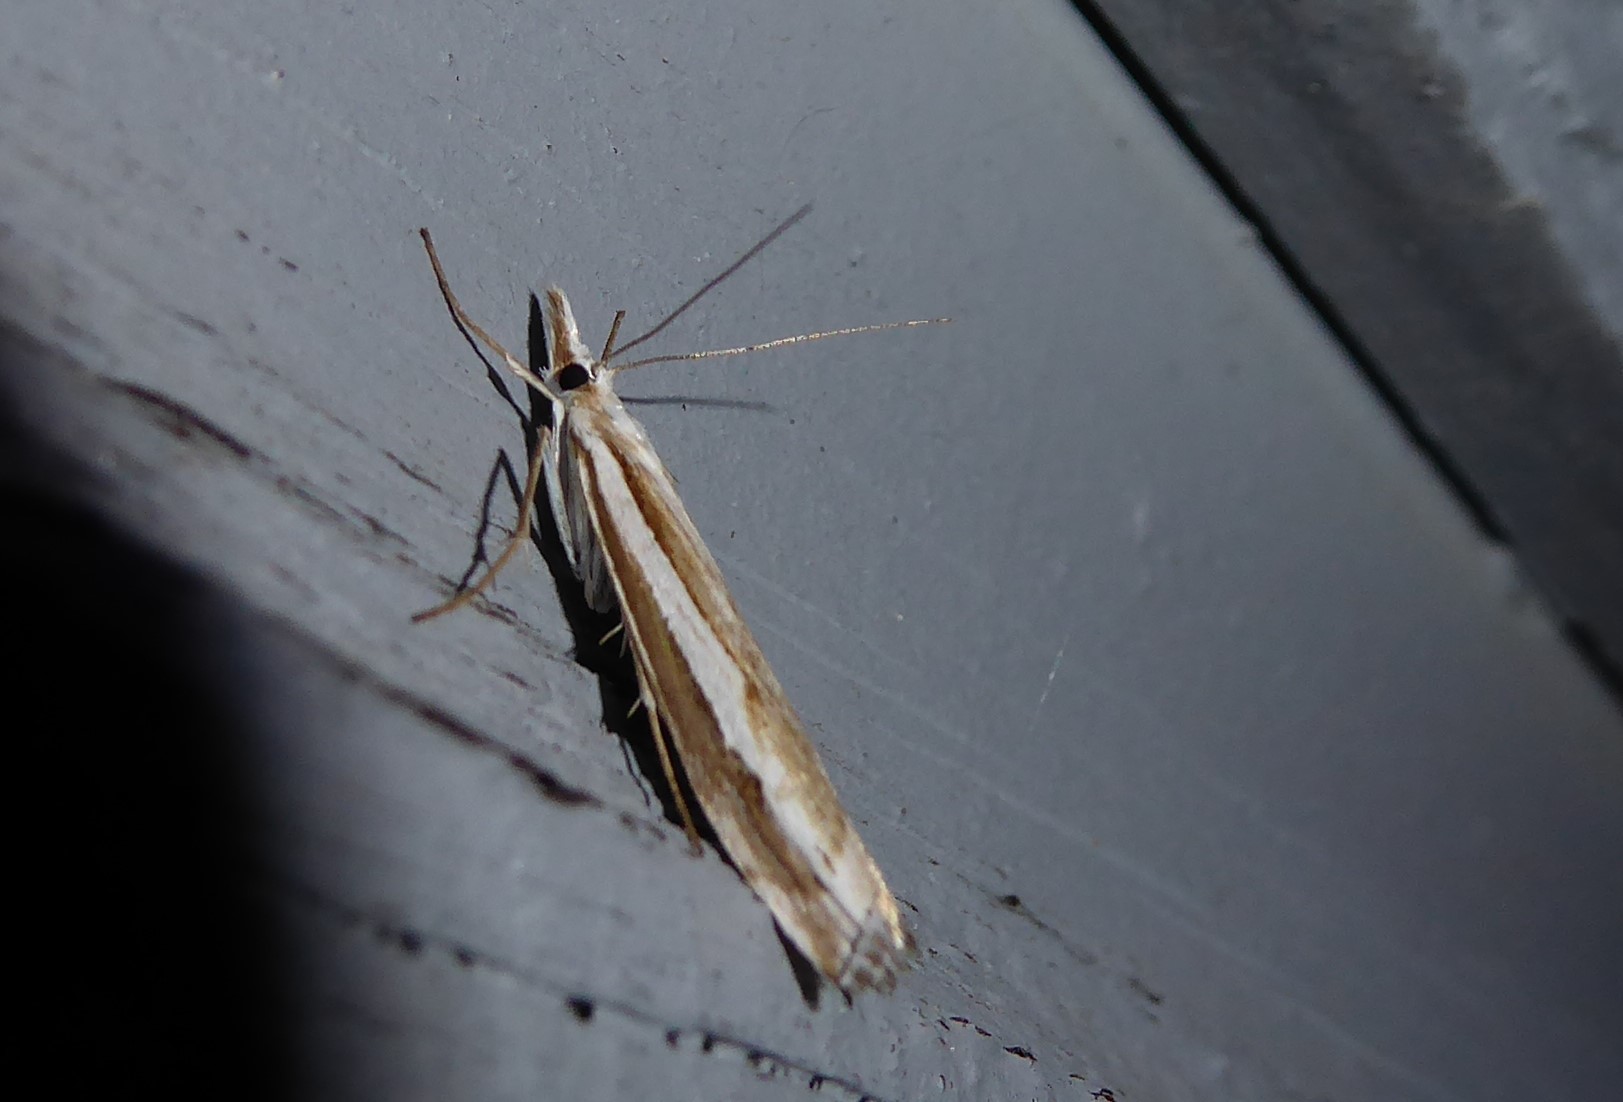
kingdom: Animalia
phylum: Arthropoda
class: Insecta
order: Lepidoptera
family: Crambidae
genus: Orocrambus
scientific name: Orocrambus vittellus
